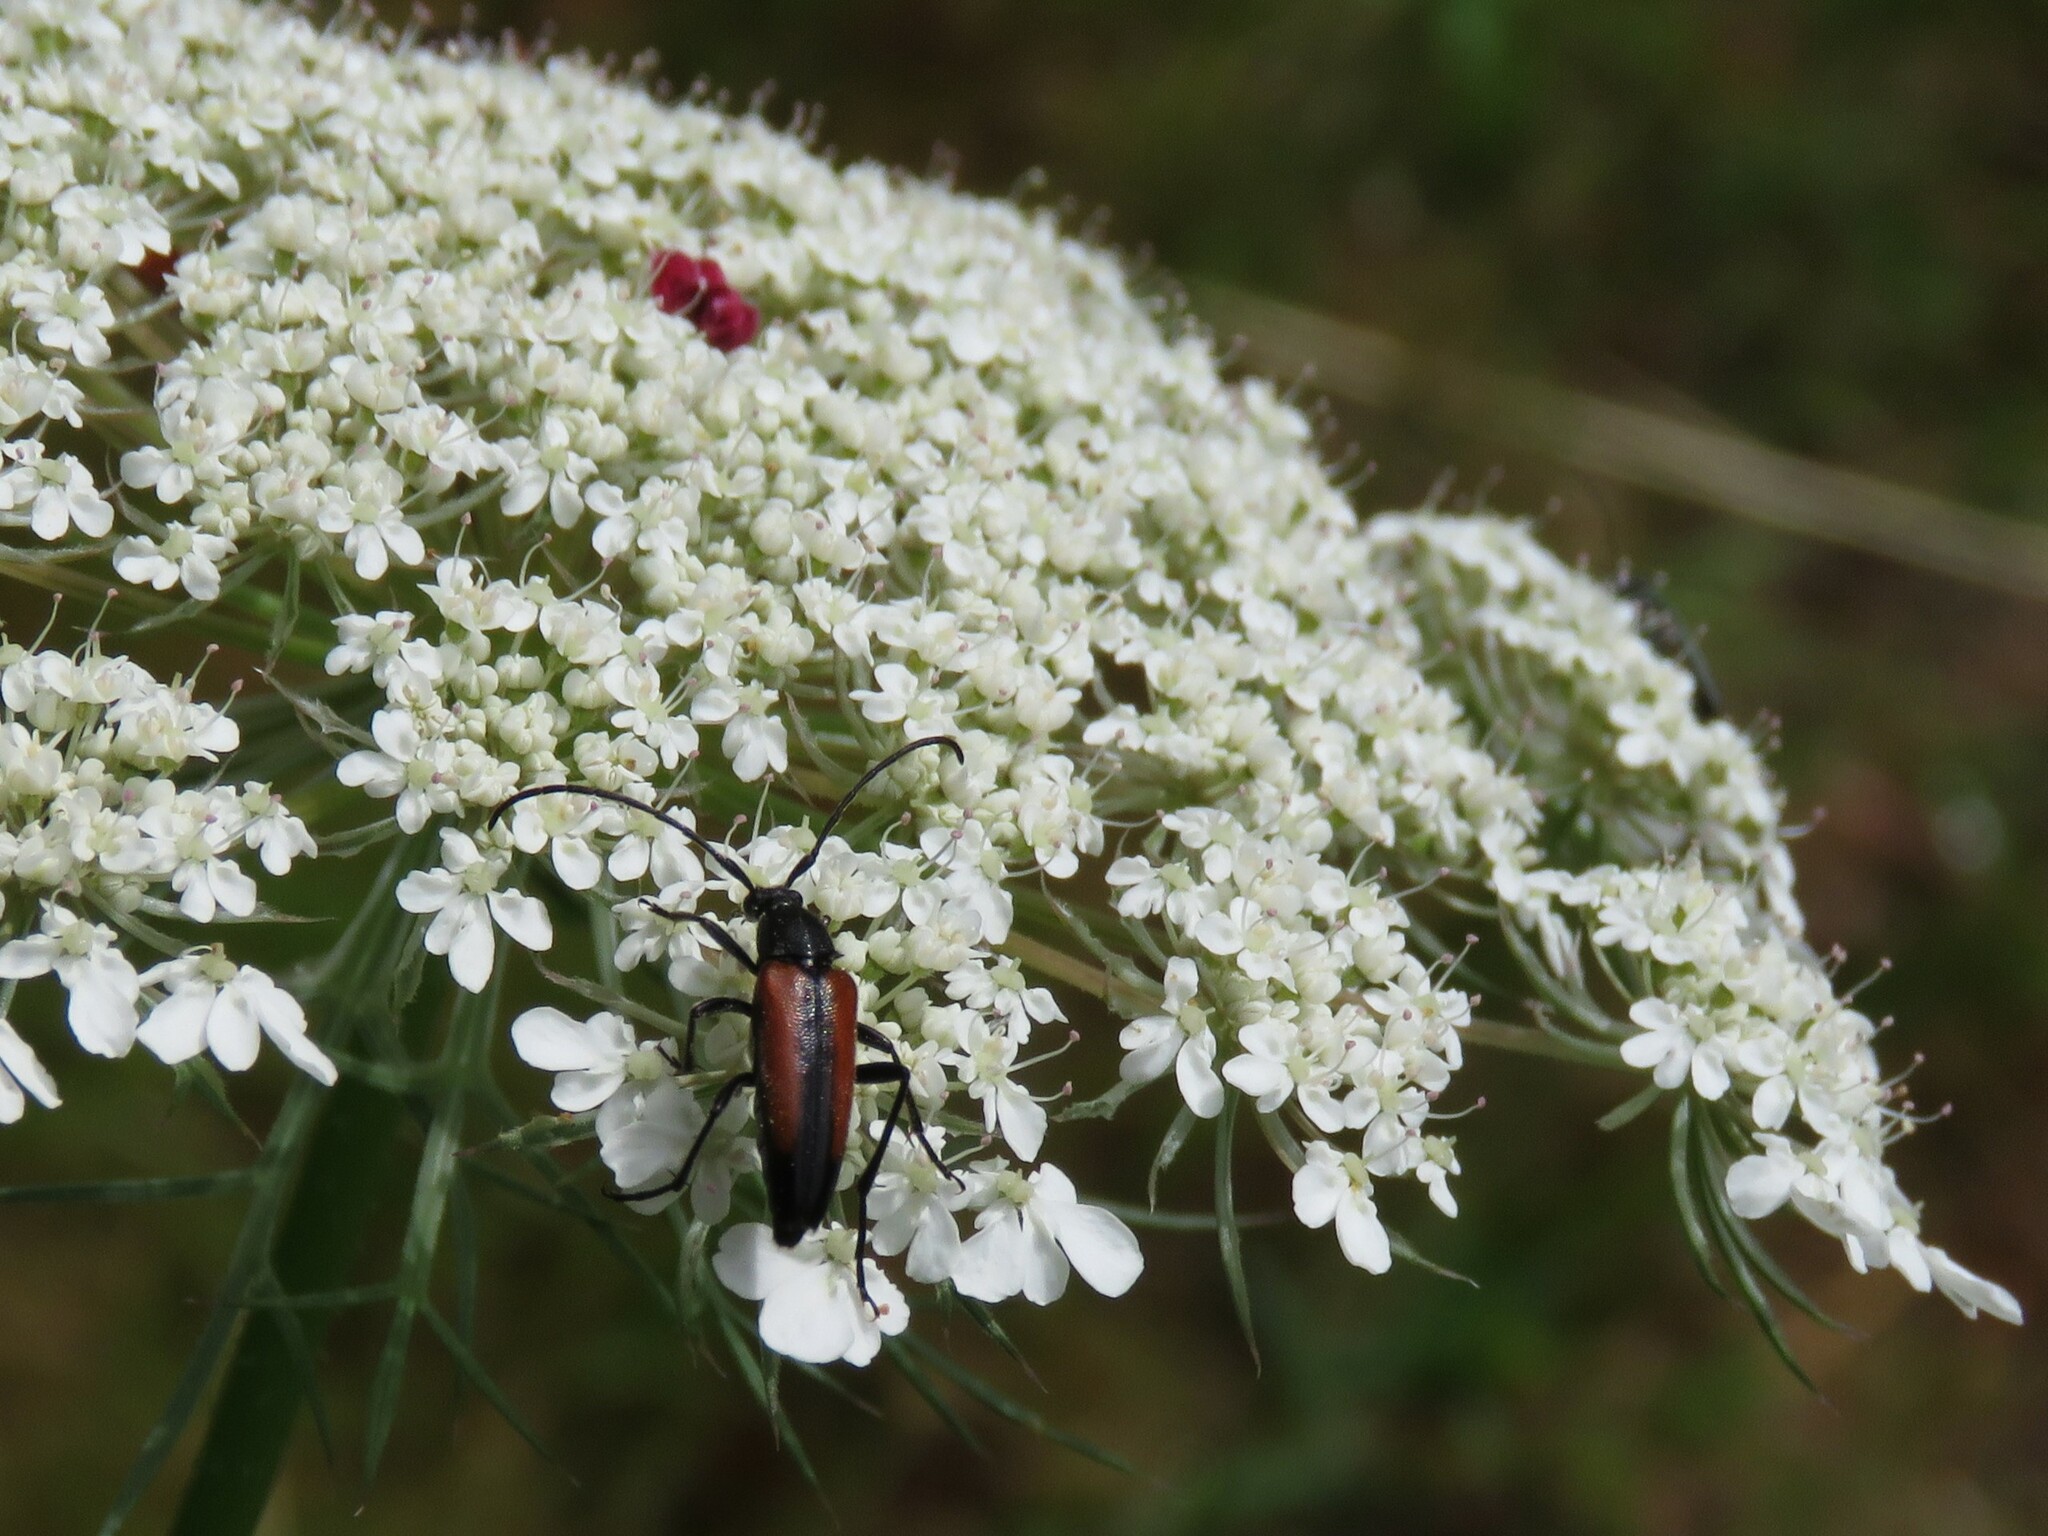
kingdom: Animalia
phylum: Arthropoda
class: Insecta
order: Coleoptera
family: Cerambycidae
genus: Stenurella
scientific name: Stenurella melanura
